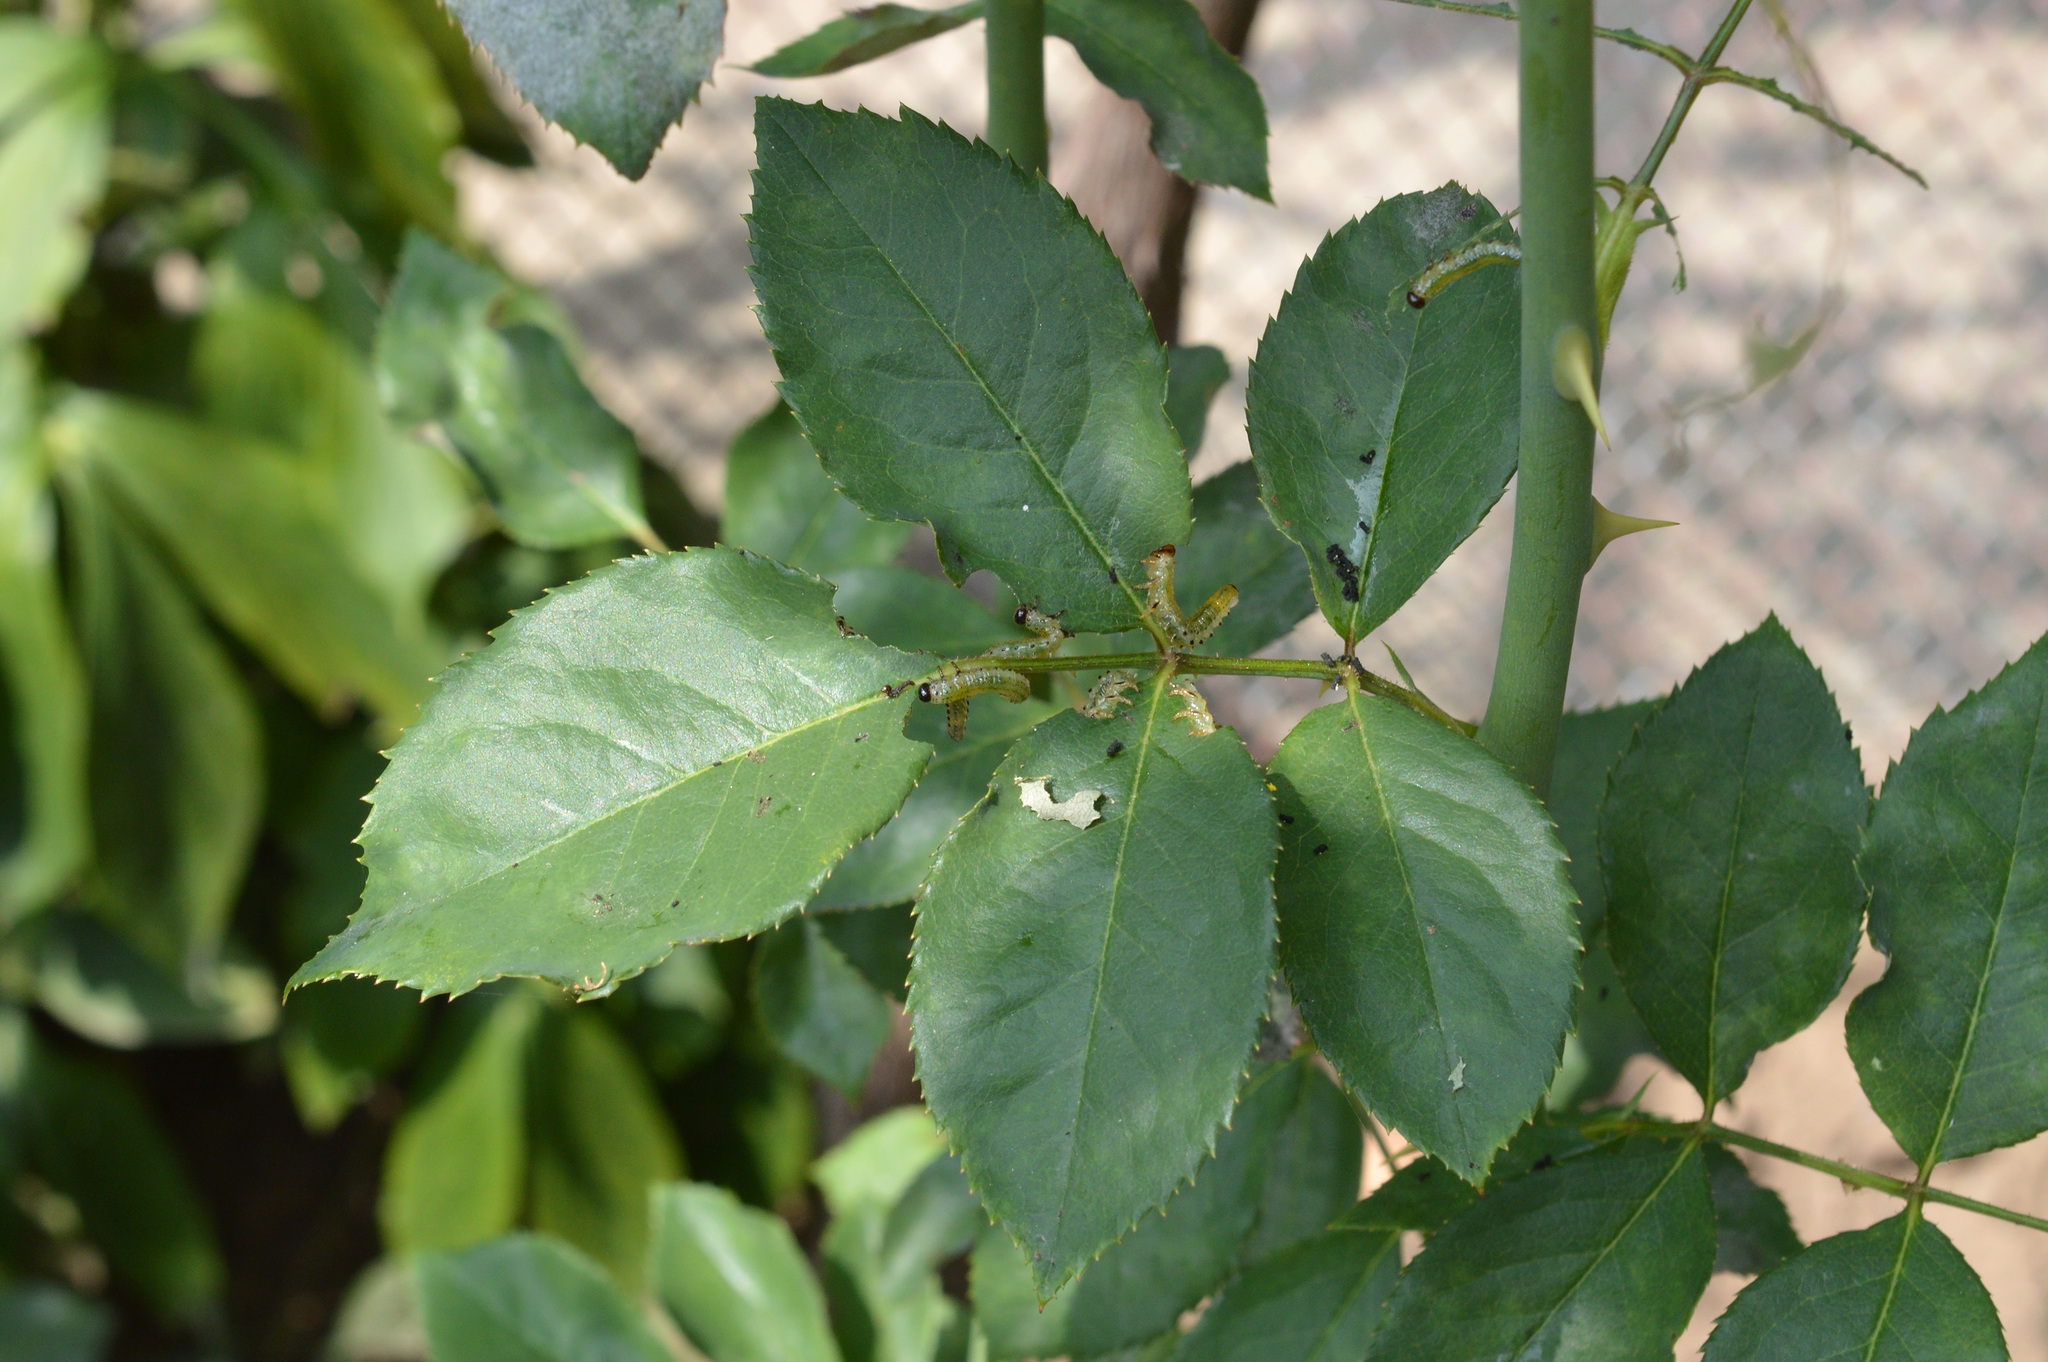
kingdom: Animalia
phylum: Arthropoda
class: Insecta
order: Hymenoptera
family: Argidae
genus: Arge
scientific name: Arge pagana
